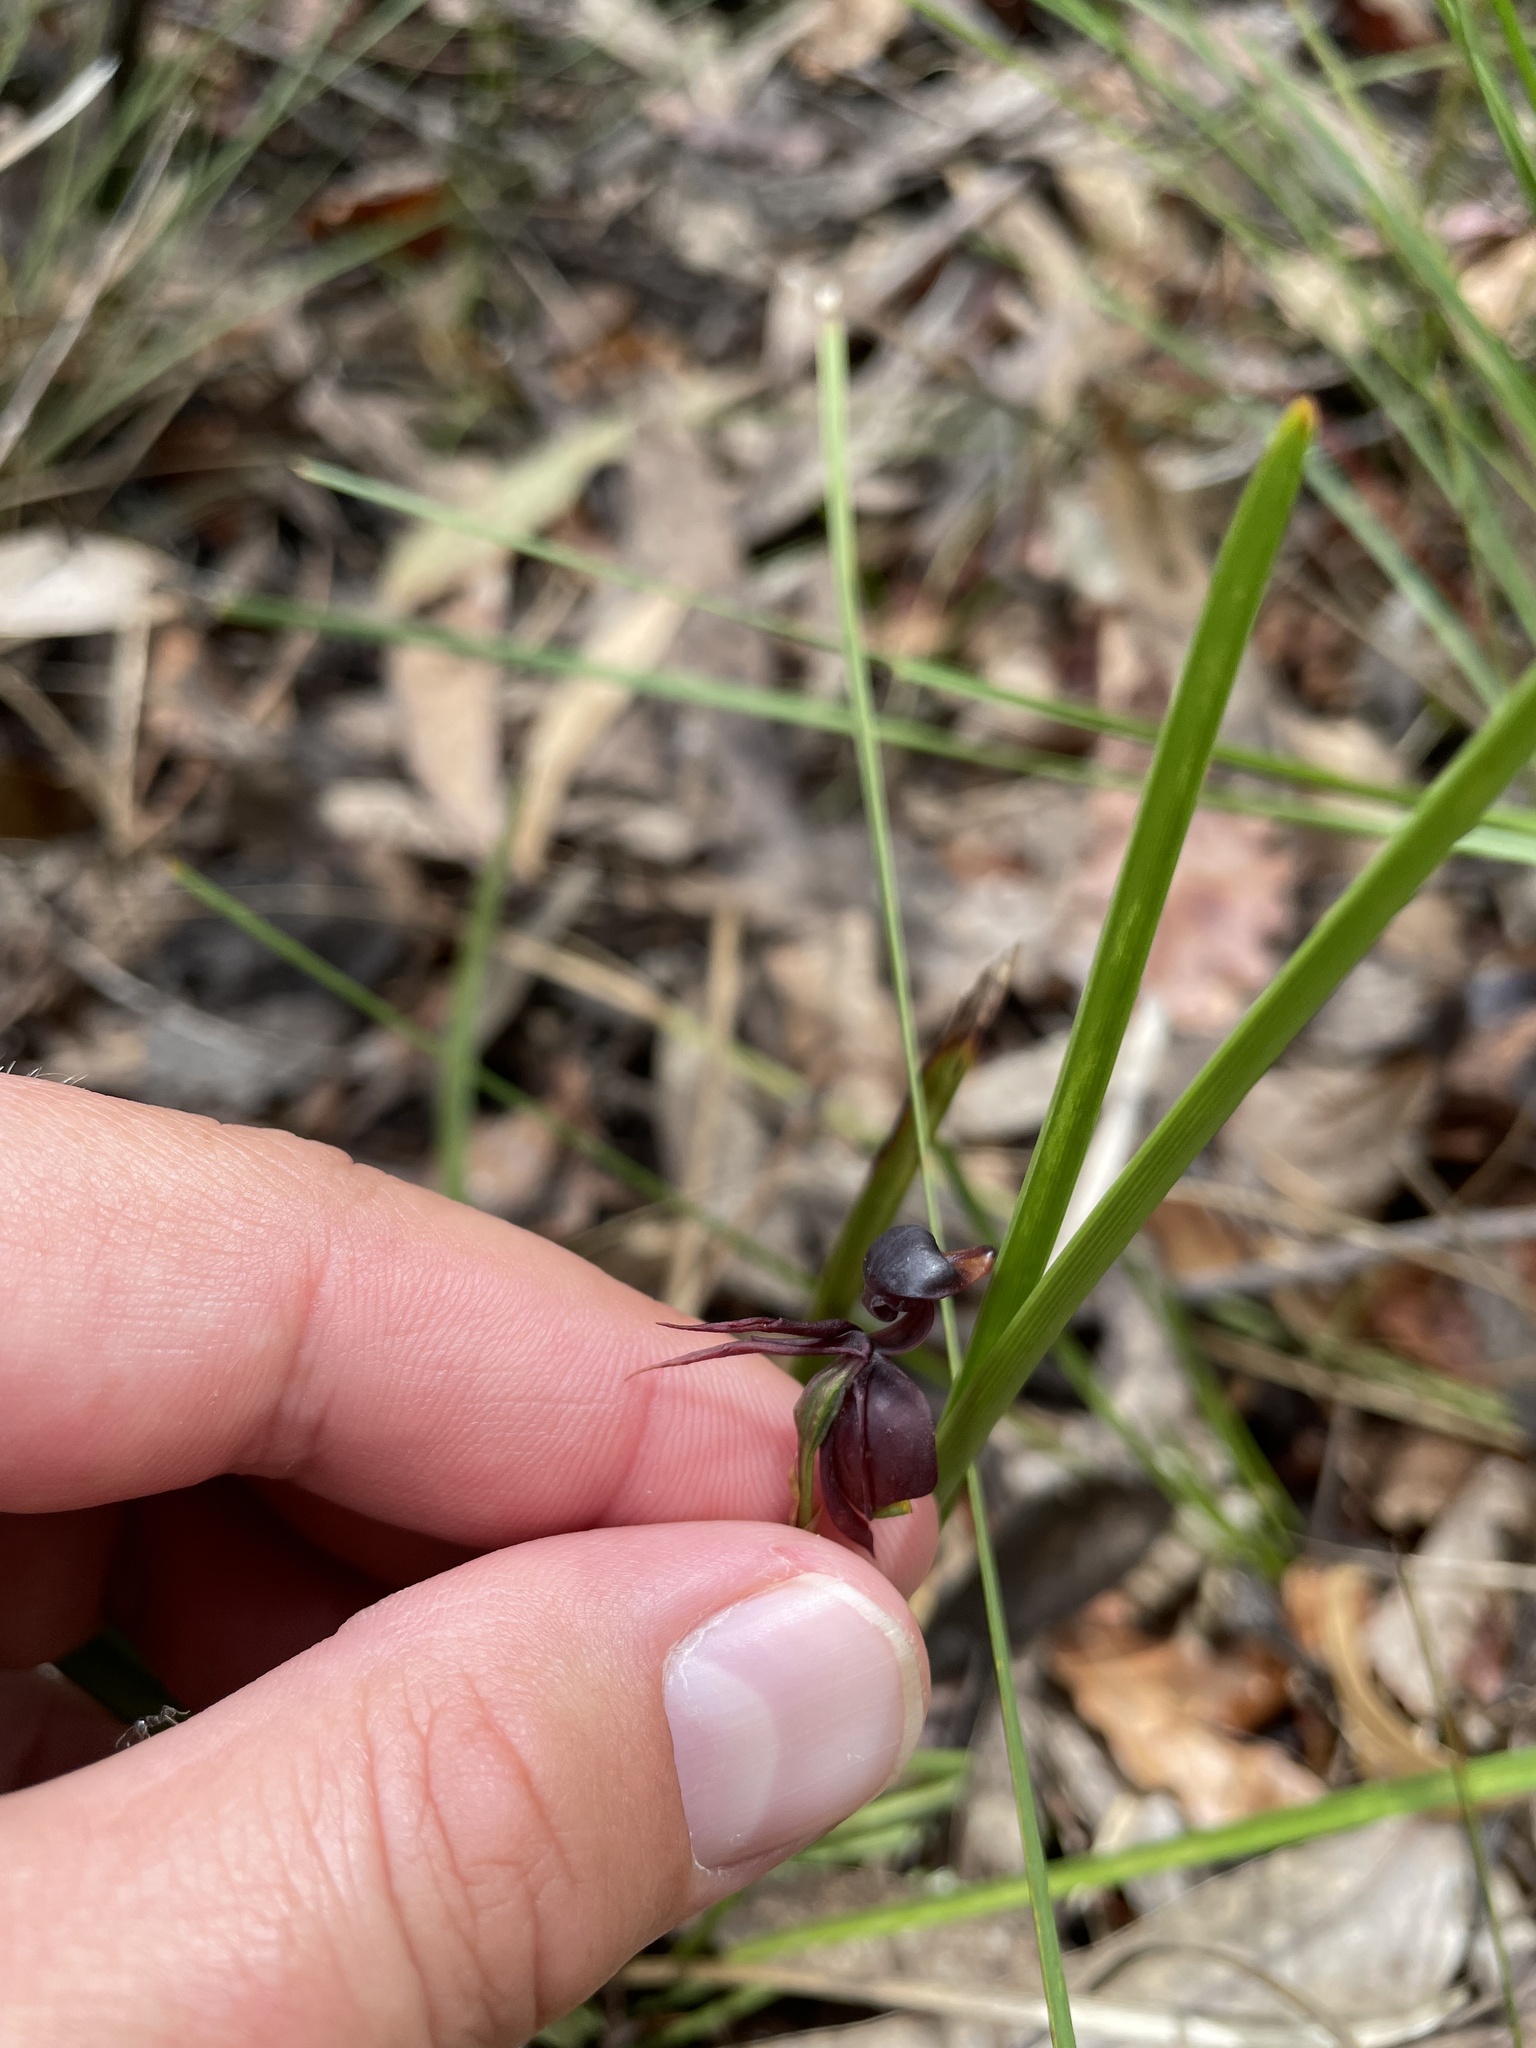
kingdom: Plantae
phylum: Tracheophyta
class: Liliopsida
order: Asparagales
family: Orchidaceae
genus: Caleana
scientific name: Caleana major
